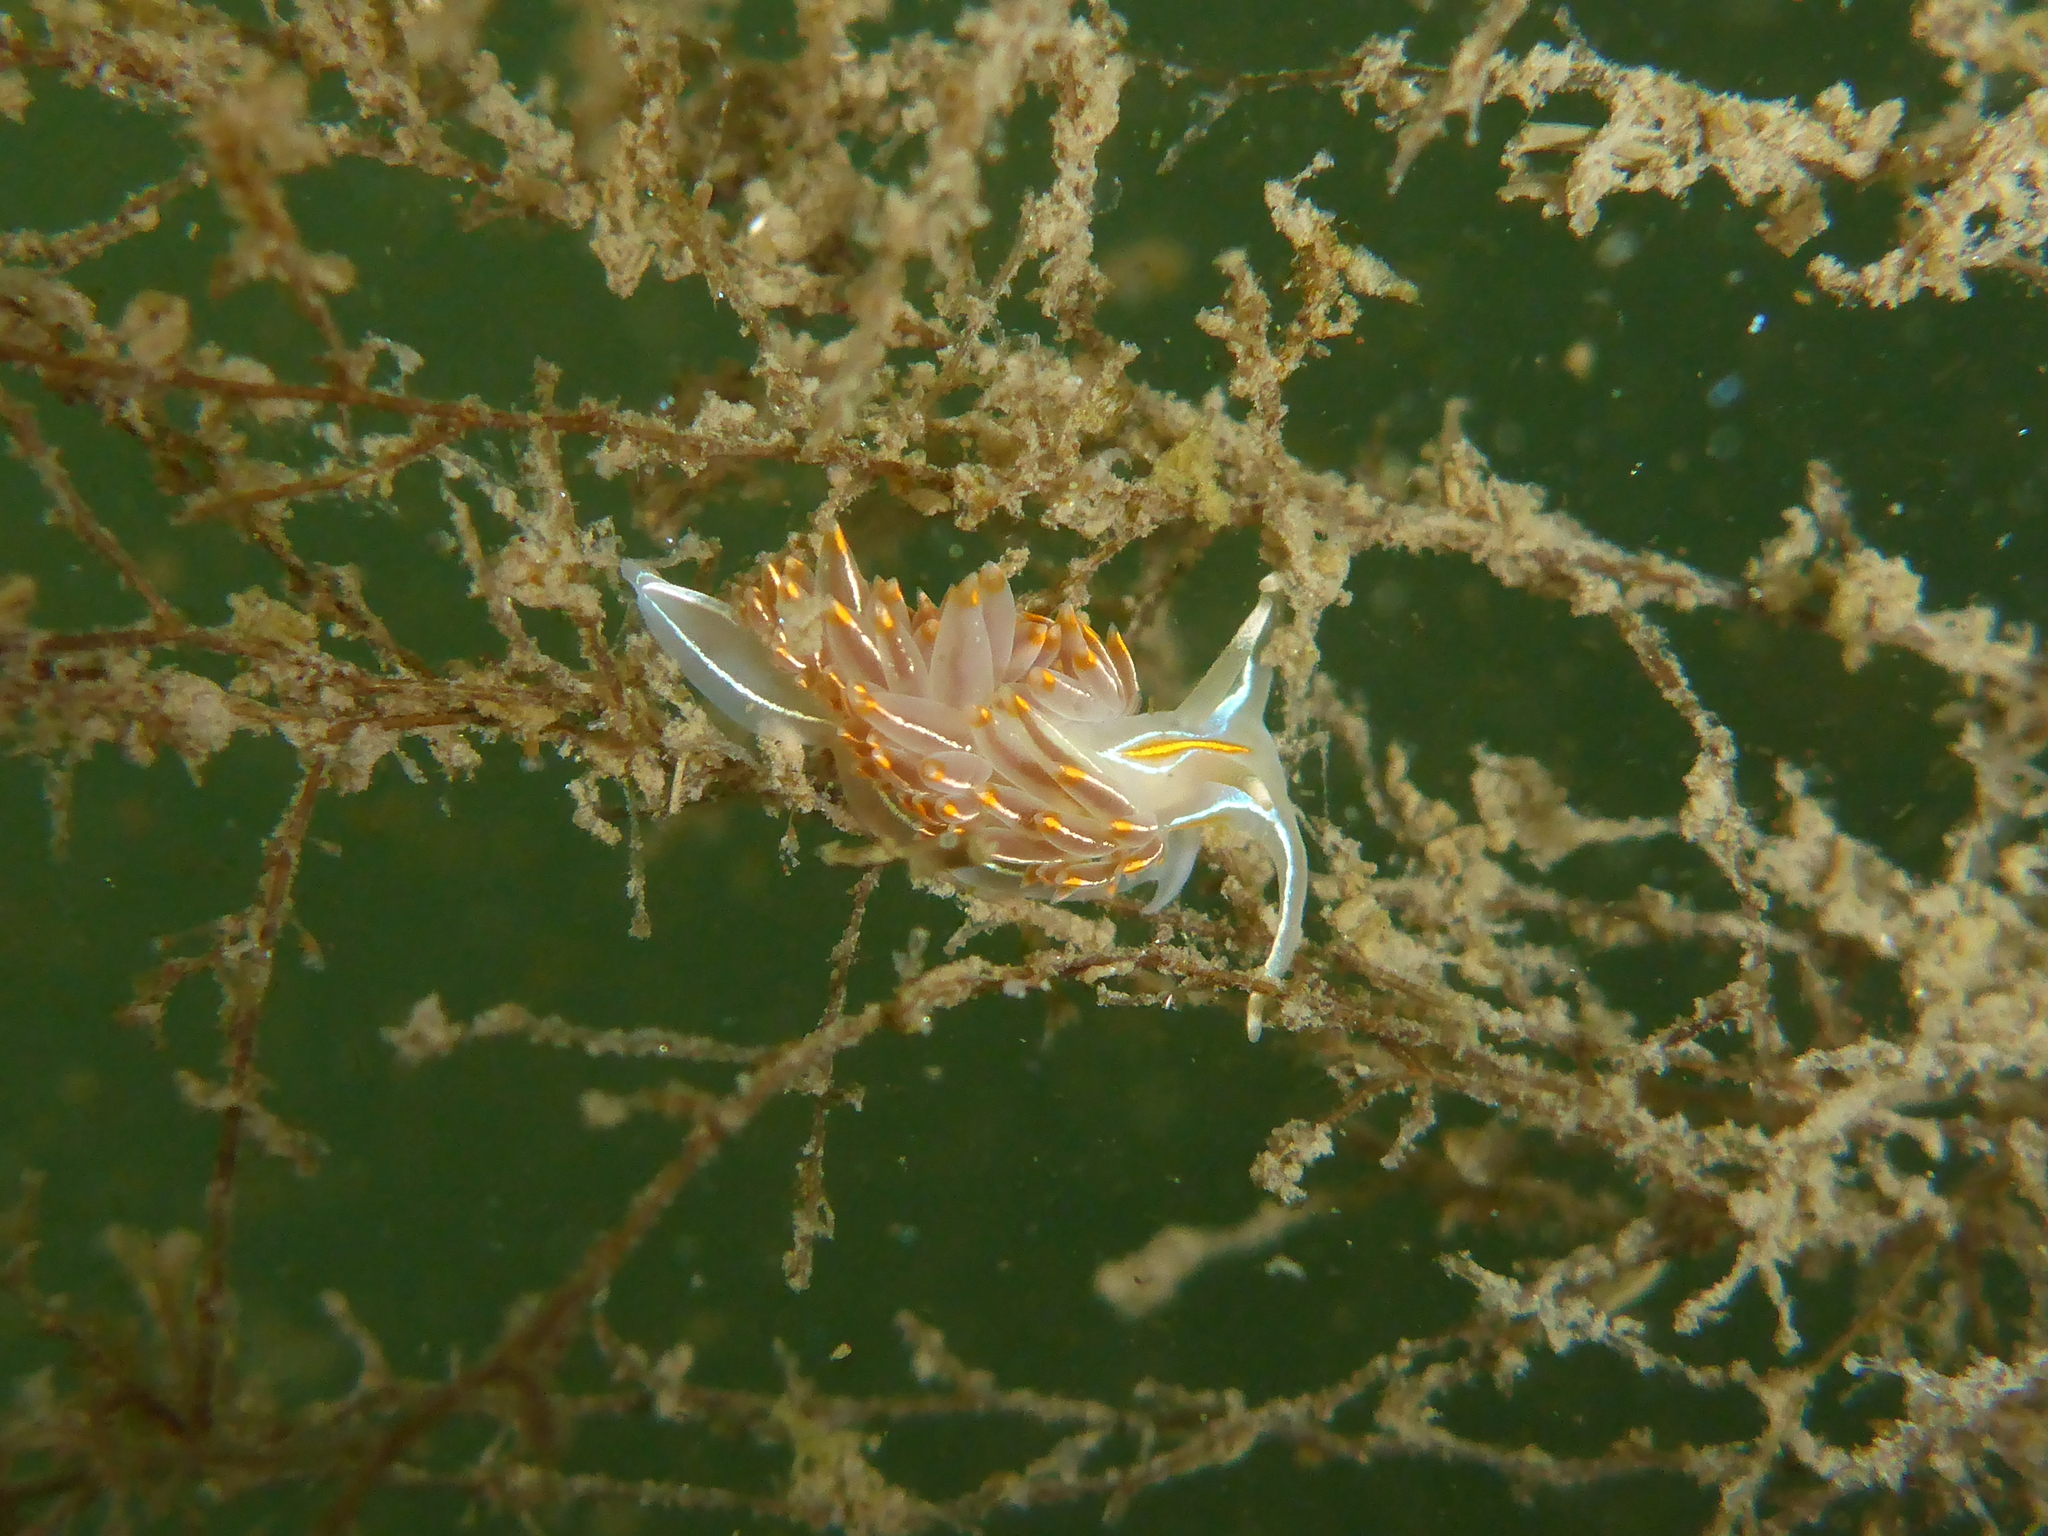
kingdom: Animalia
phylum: Mollusca
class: Gastropoda
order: Nudibranchia
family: Myrrhinidae
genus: Hermissenda
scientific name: Hermissenda crassicornis
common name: Hermissenda
